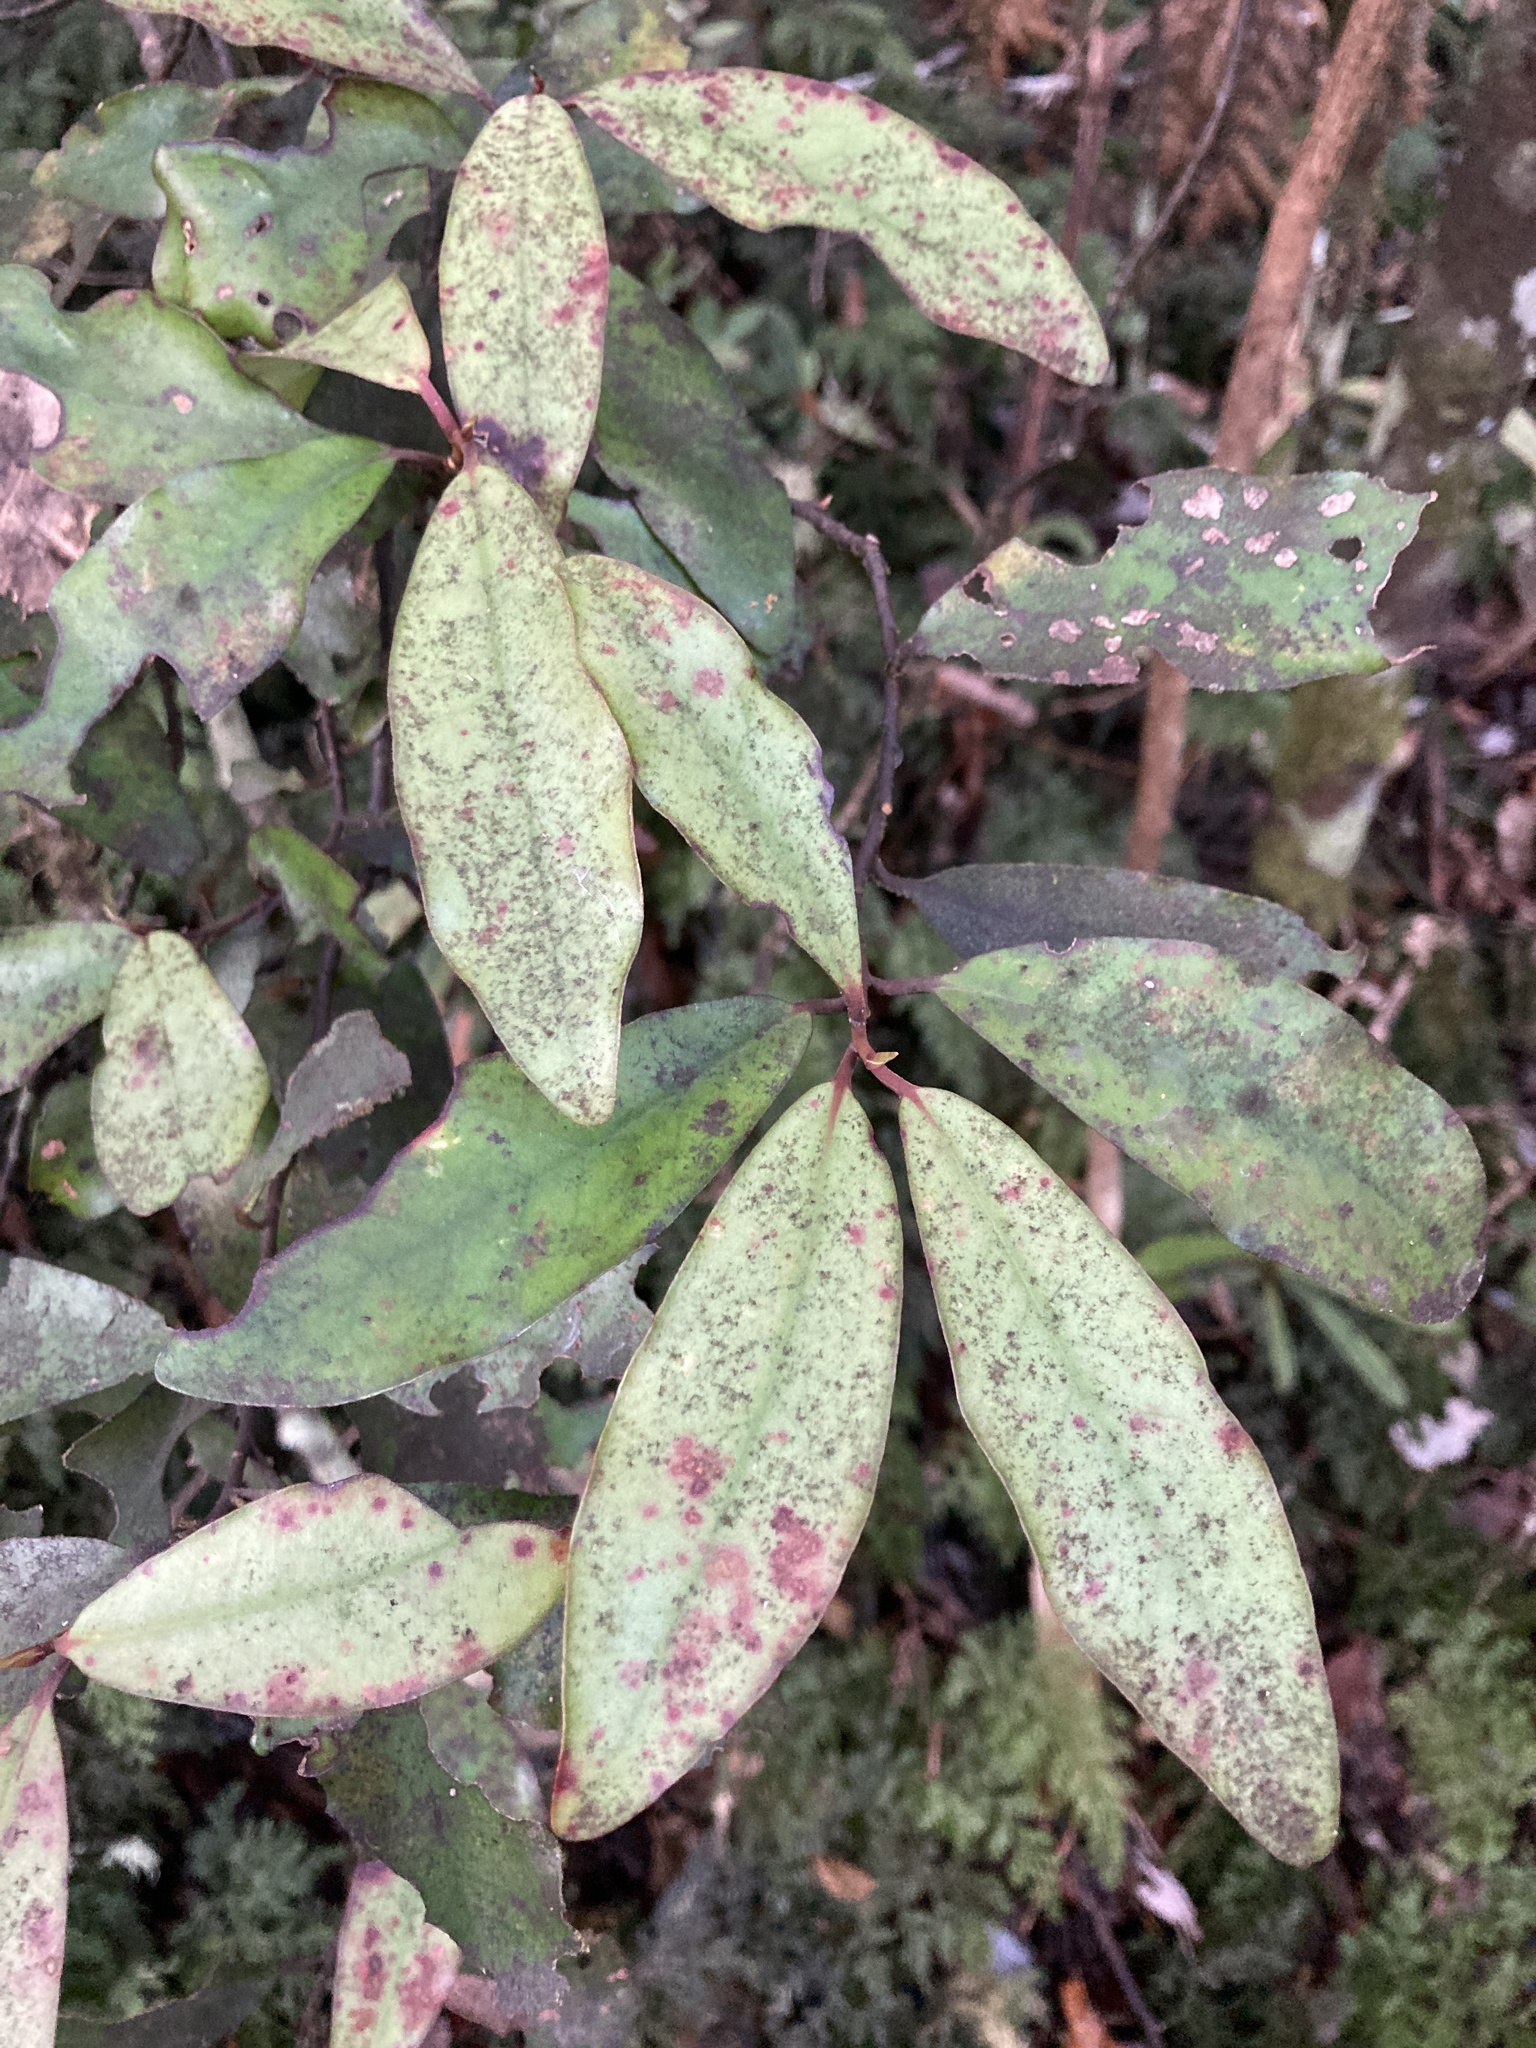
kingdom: Plantae
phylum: Tracheophyta
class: Magnoliopsida
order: Canellales
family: Winteraceae
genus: Pseudowintera
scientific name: Pseudowintera colorata
